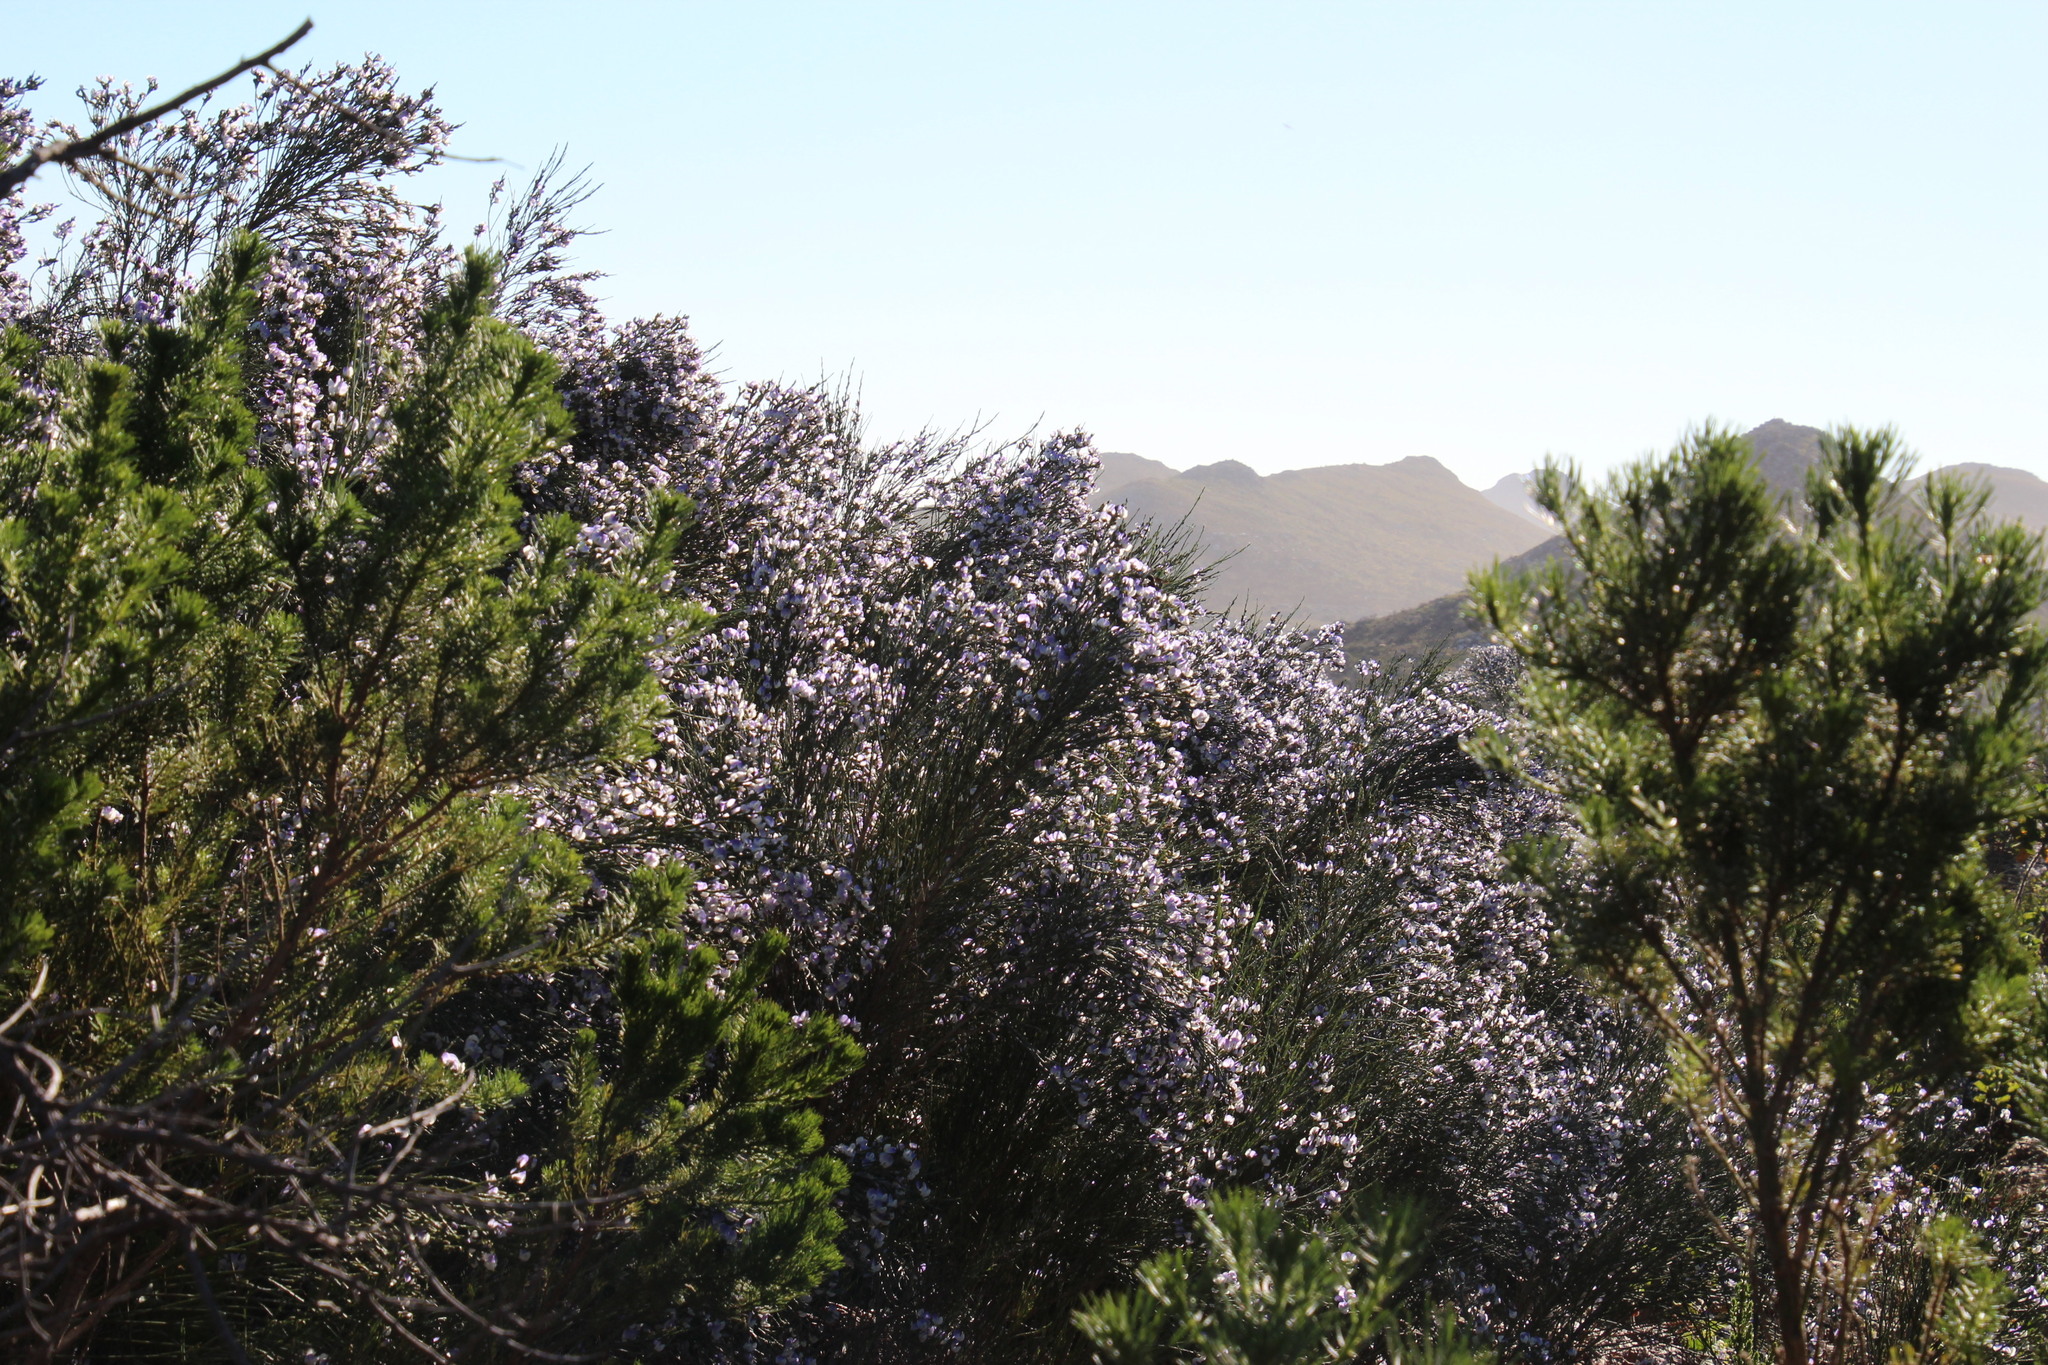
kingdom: Plantae
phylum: Tracheophyta
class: Magnoliopsida
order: Fabales
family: Fabaceae
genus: Psoralea
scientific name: Psoralea aphylla
